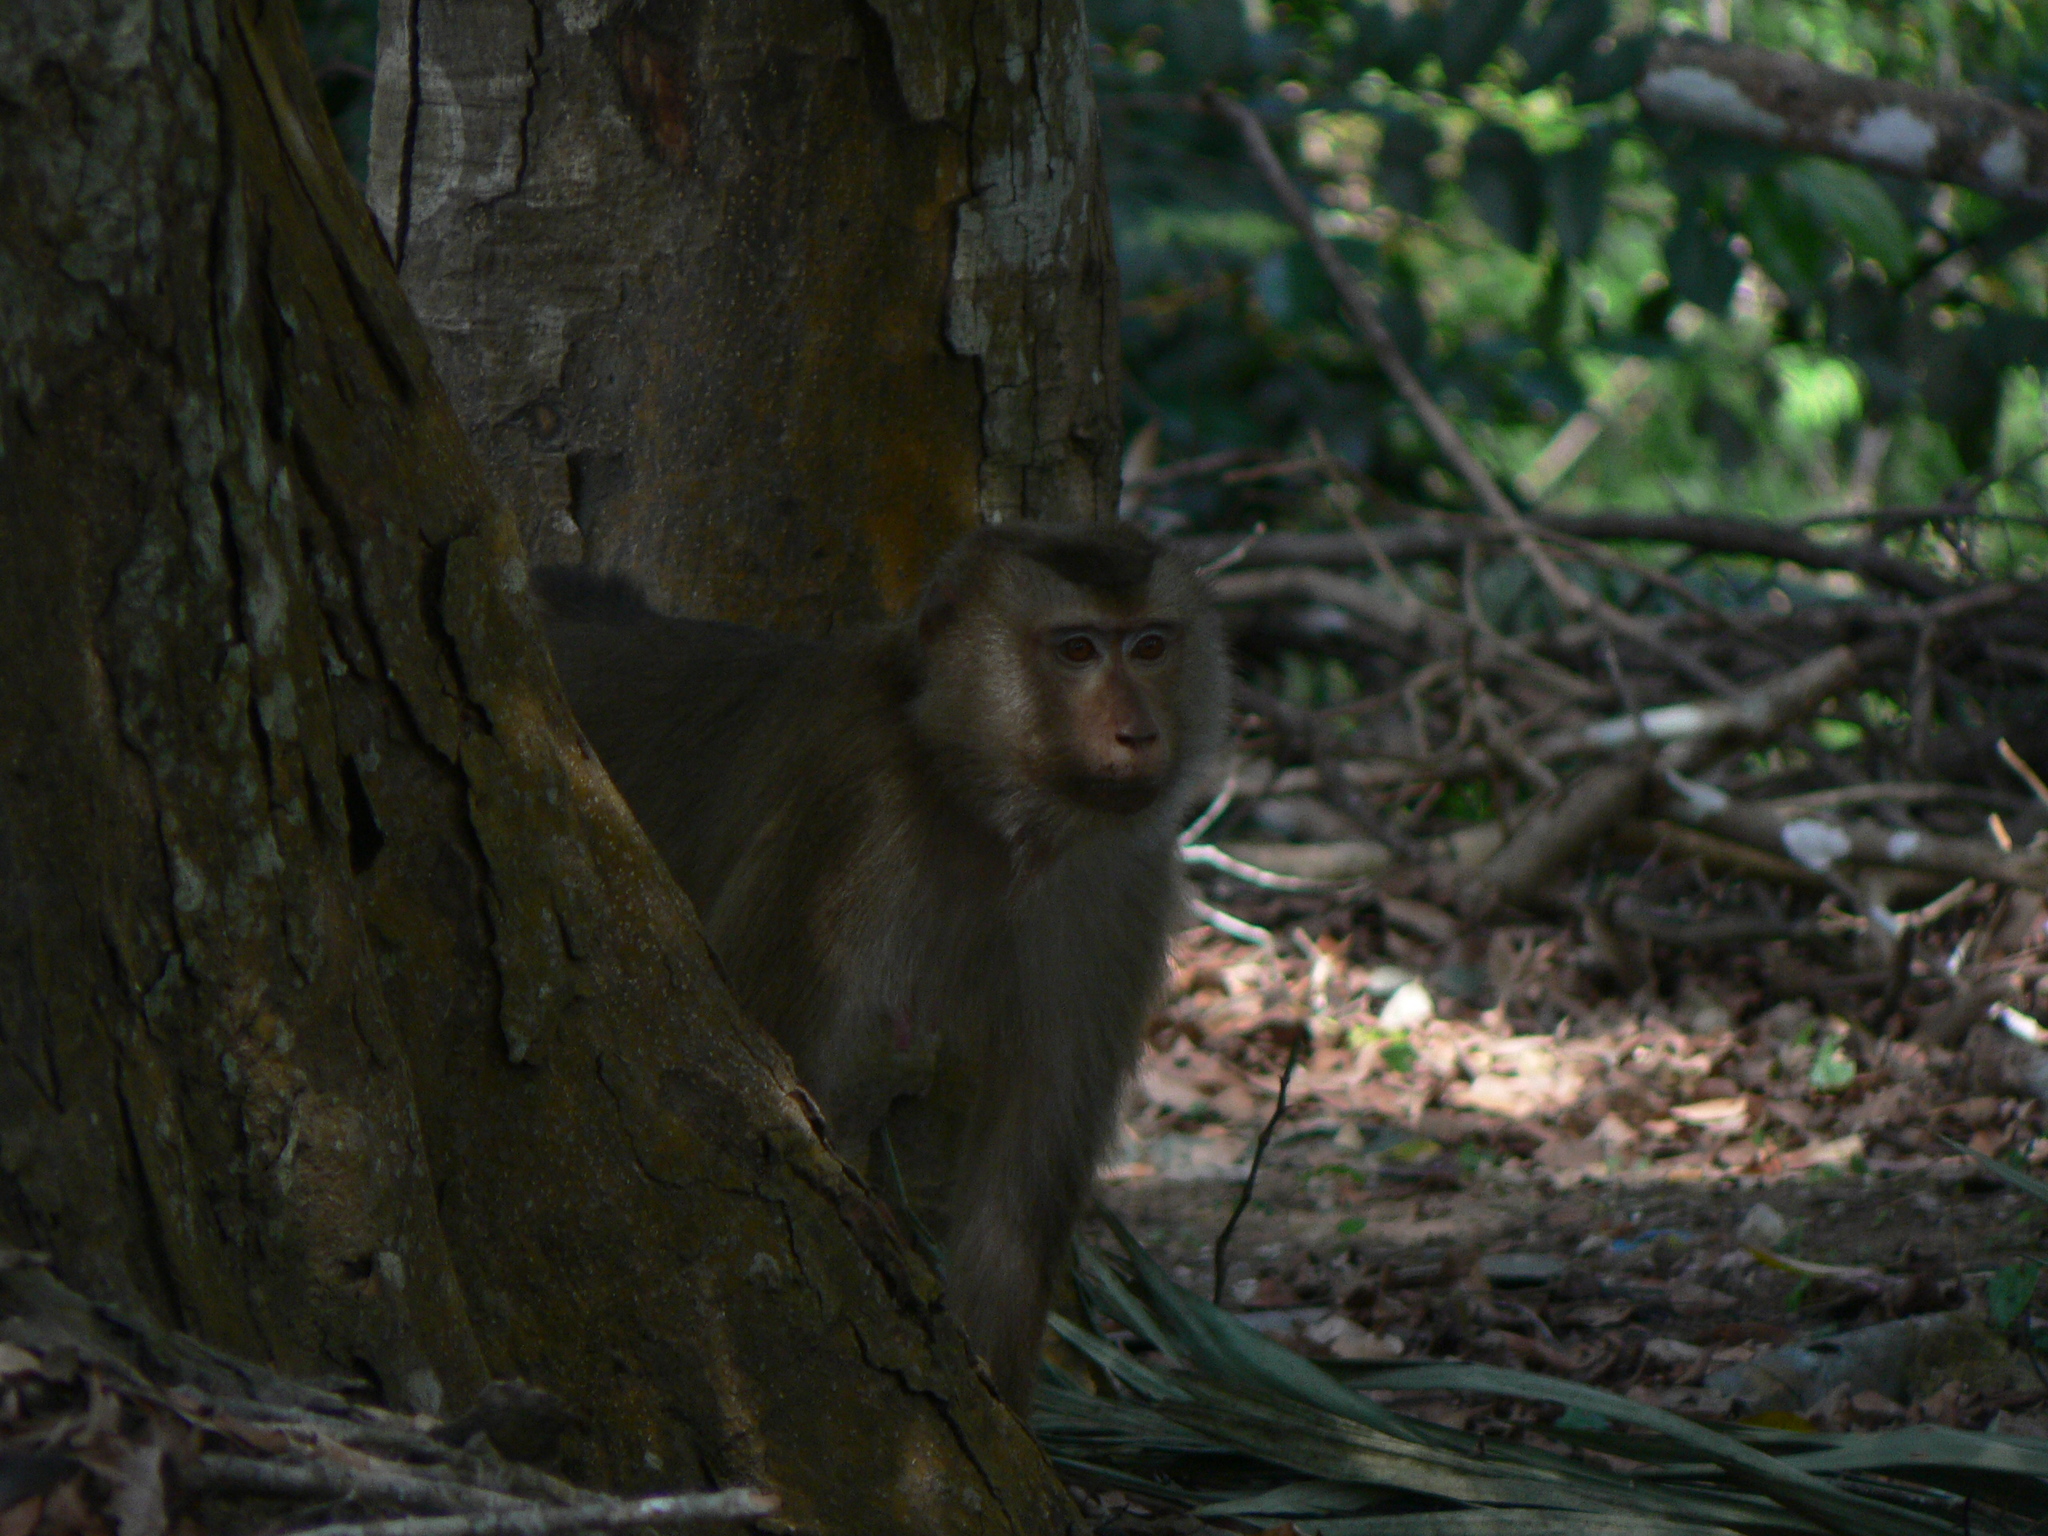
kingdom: Animalia
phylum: Chordata
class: Mammalia
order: Primates
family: Cercopithecidae
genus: Macaca
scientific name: Macaca leonina
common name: Northern pig-tailed macaque
